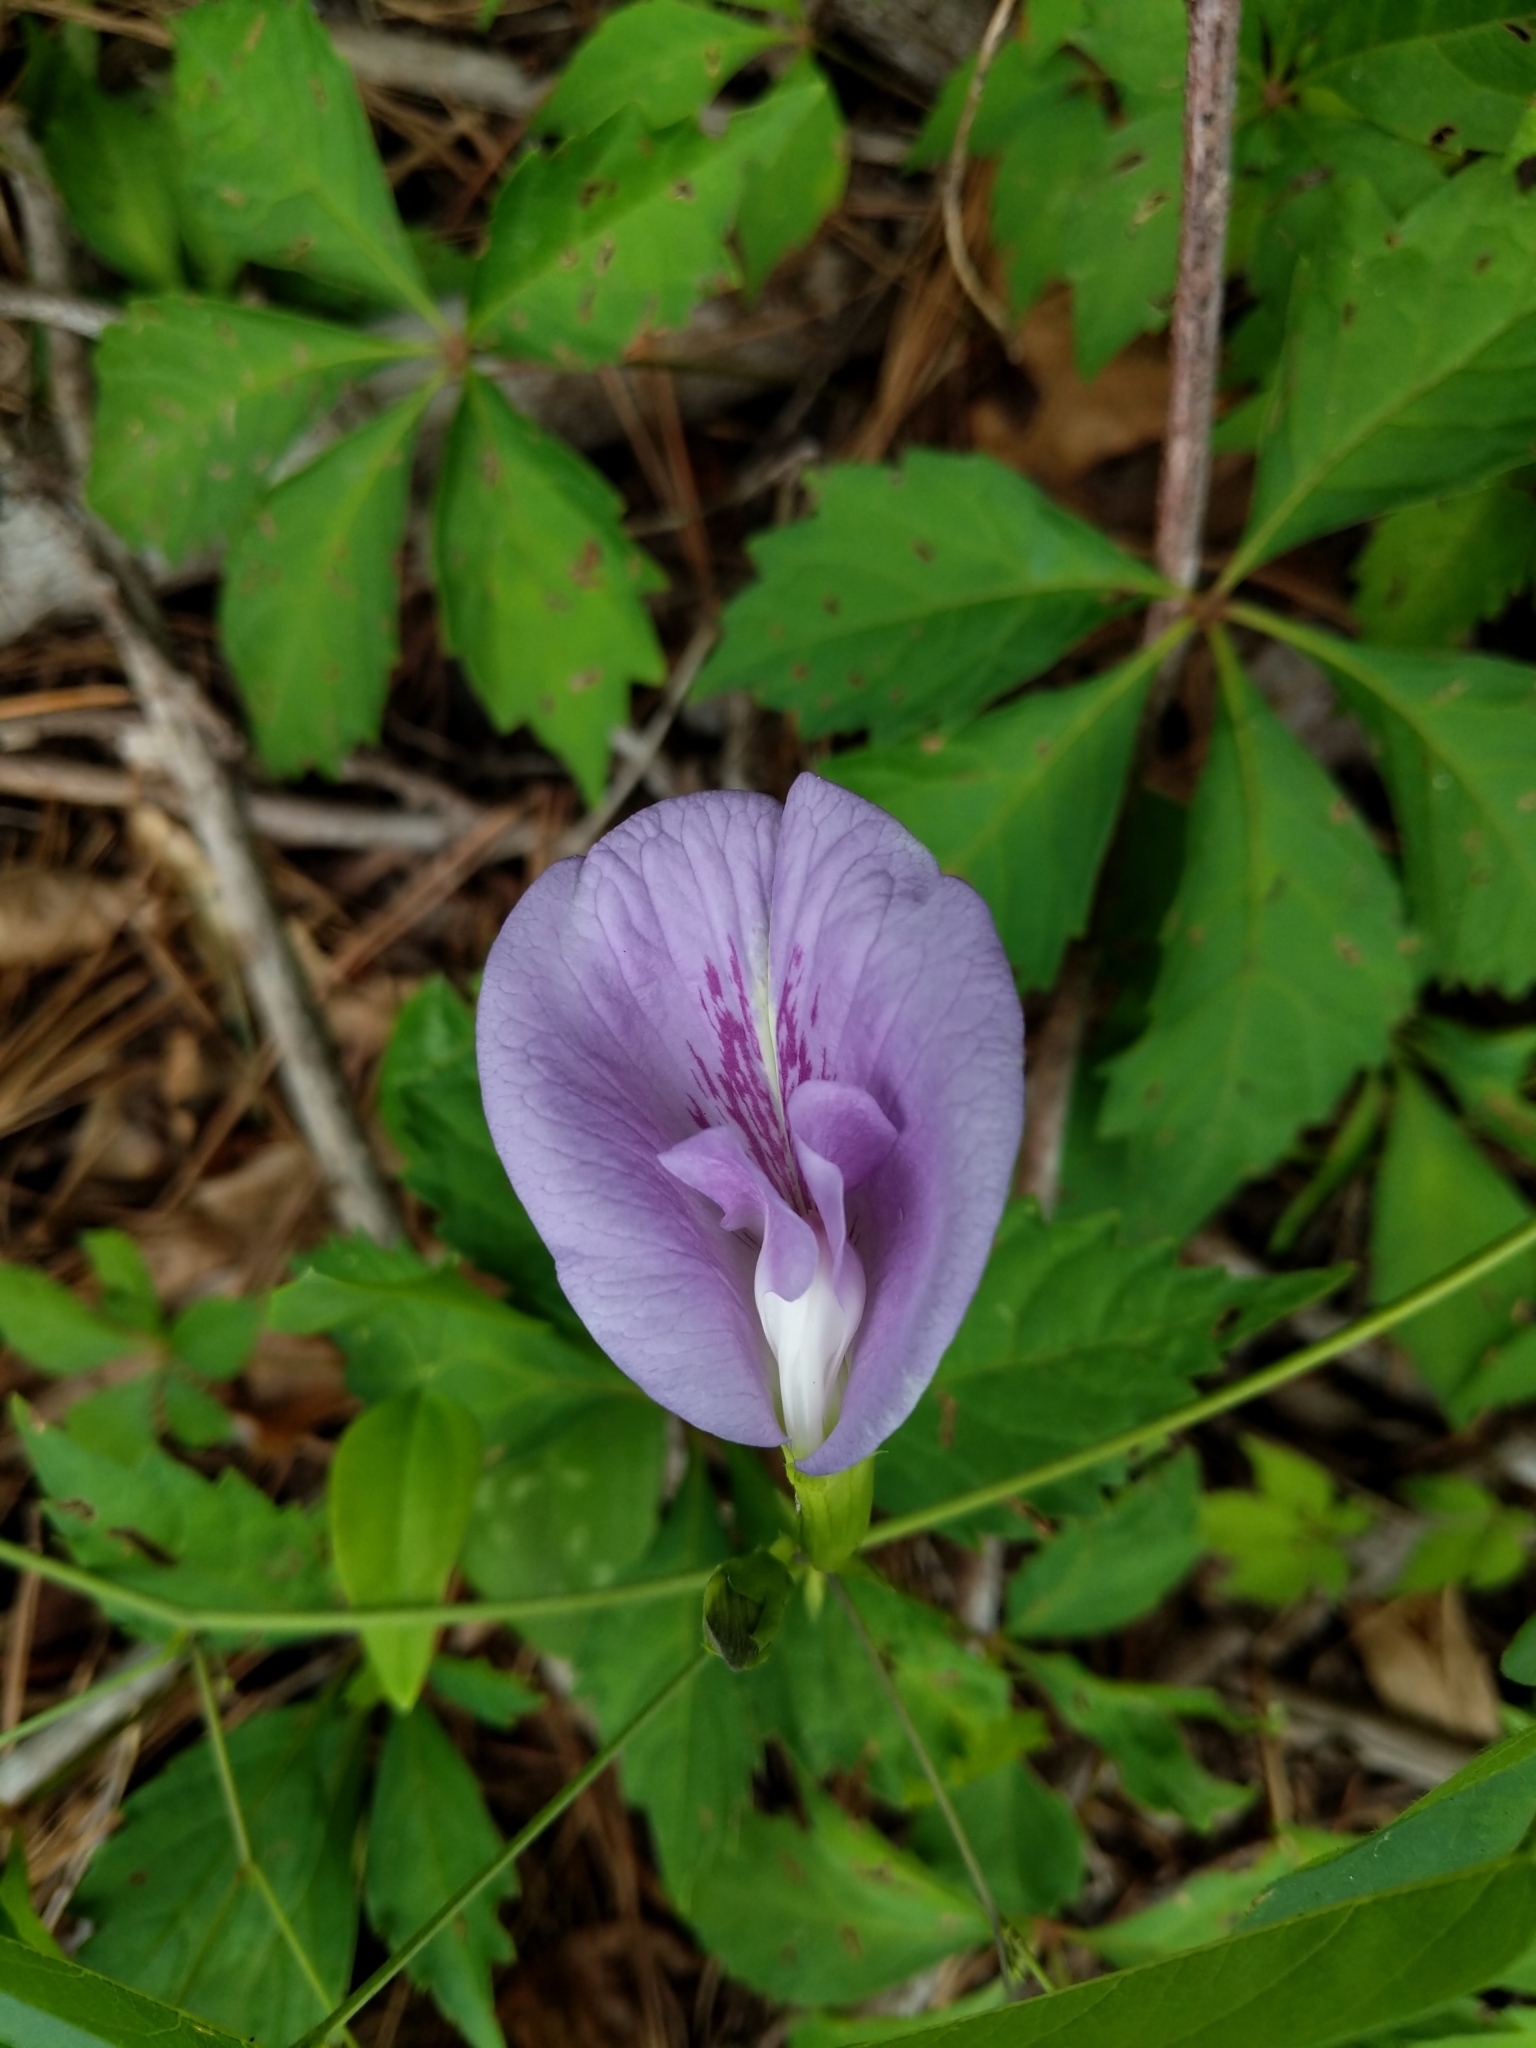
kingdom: Plantae
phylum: Tracheophyta
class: Magnoliopsida
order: Fabales
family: Fabaceae
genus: Clitoria
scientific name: Clitoria mariana
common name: Butterfly-pea
